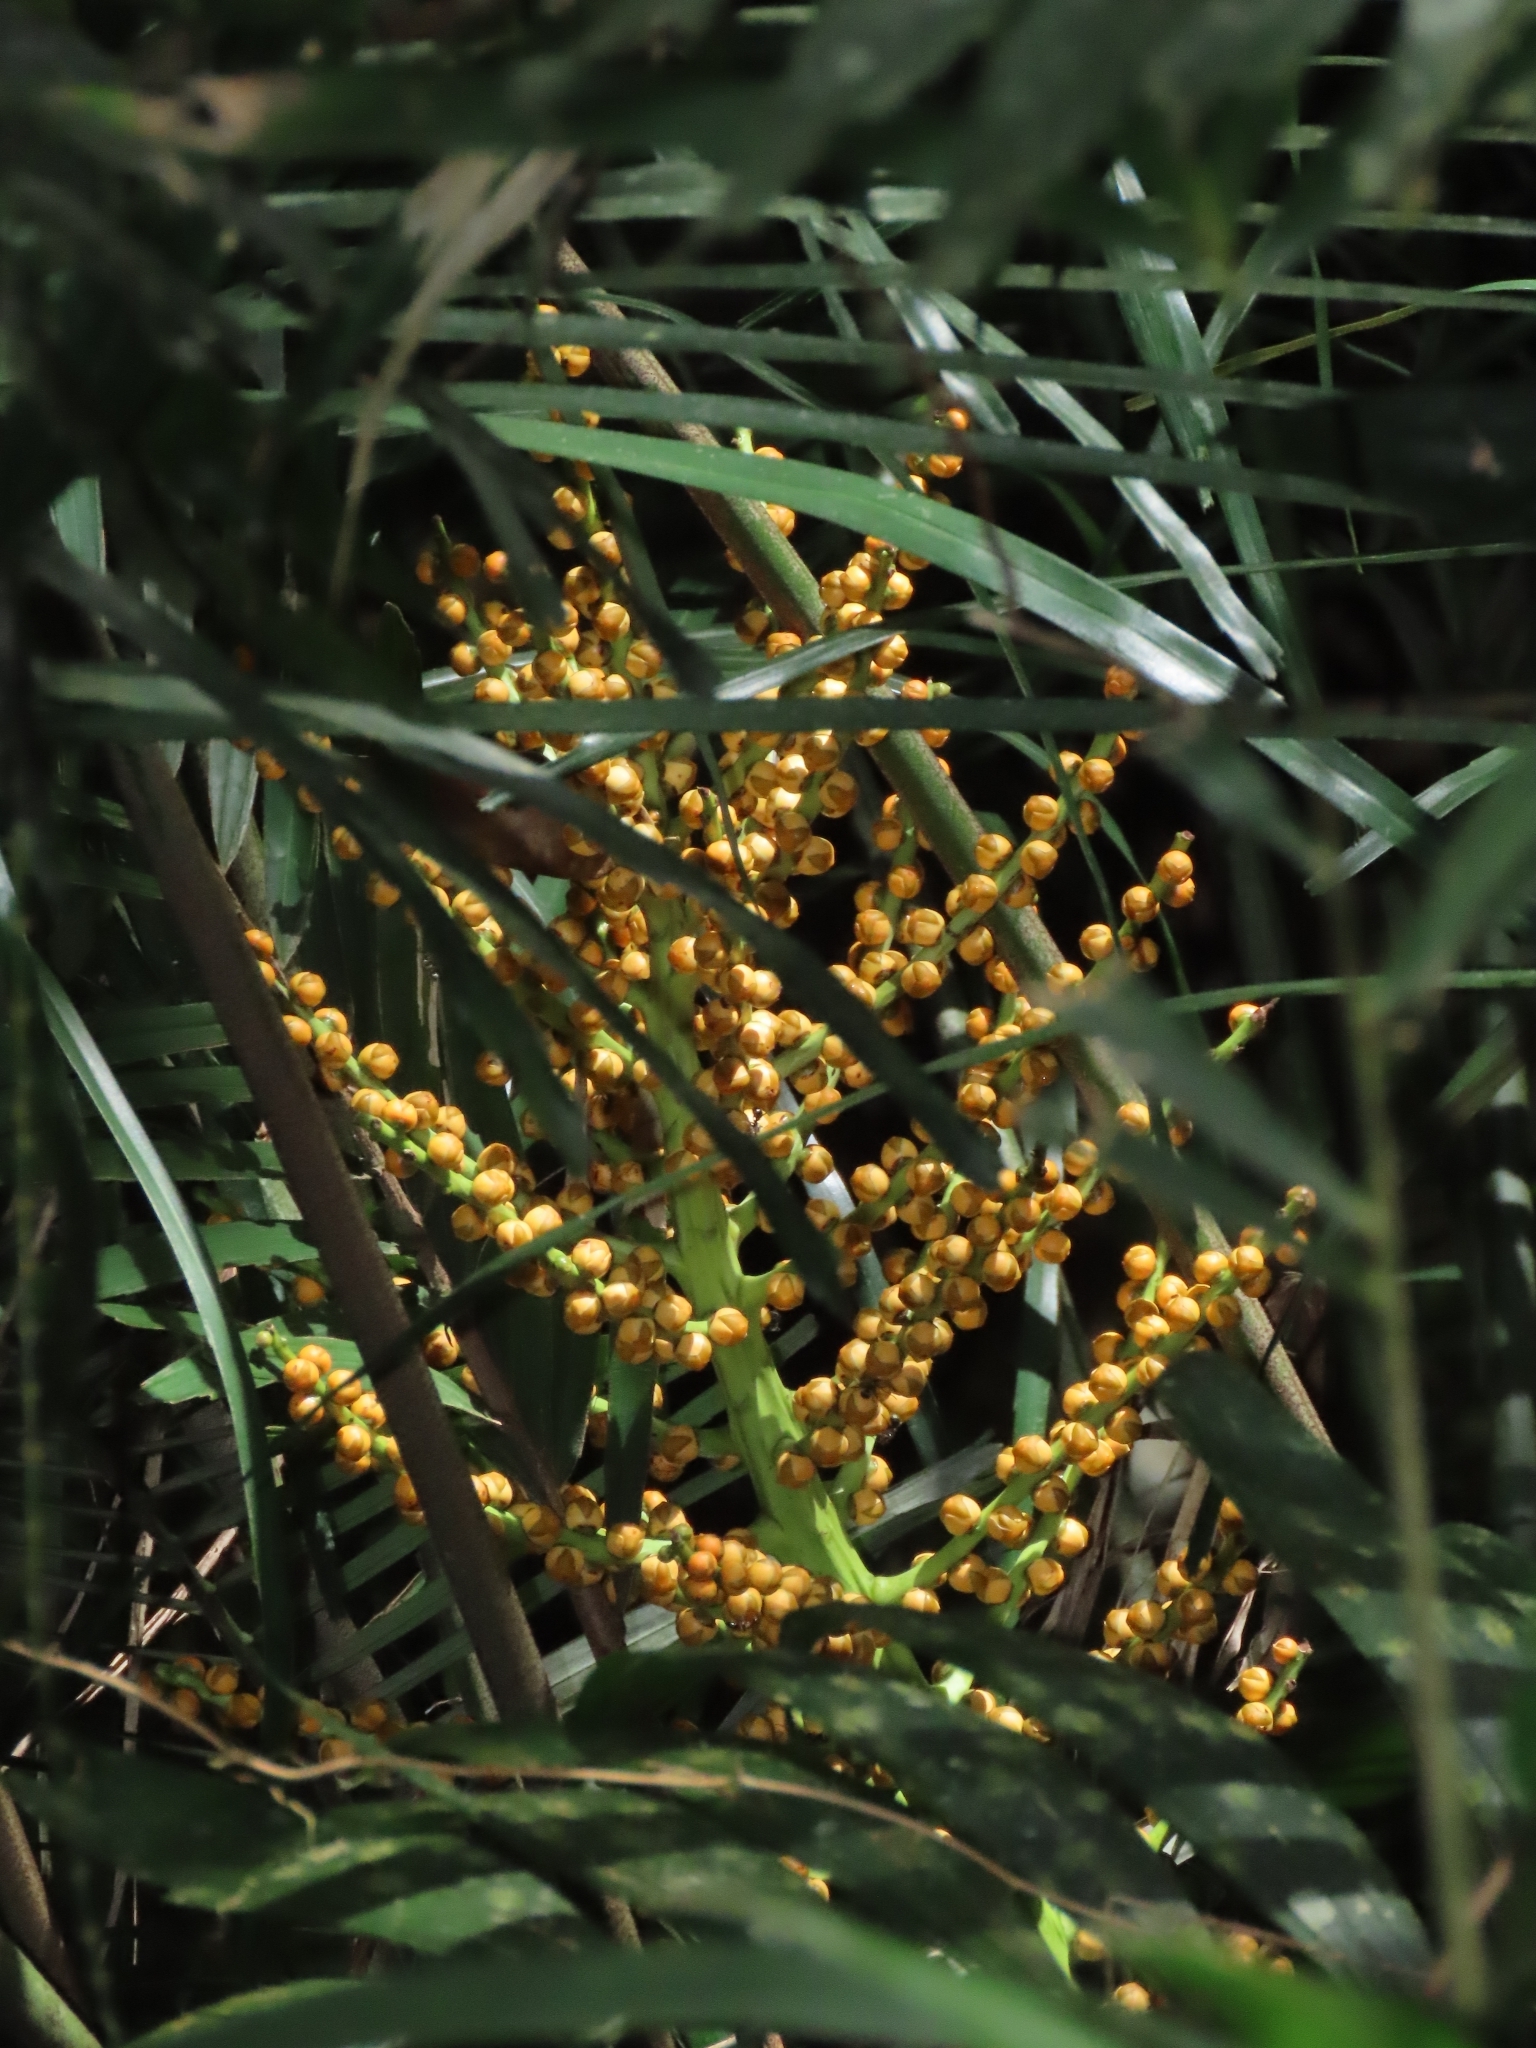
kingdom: Plantae
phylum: Tracheophyta
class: Liliopsida
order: Arecales
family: Arecaceae
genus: Arenga
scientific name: Arenga engleri
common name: Formosan sugar palm
